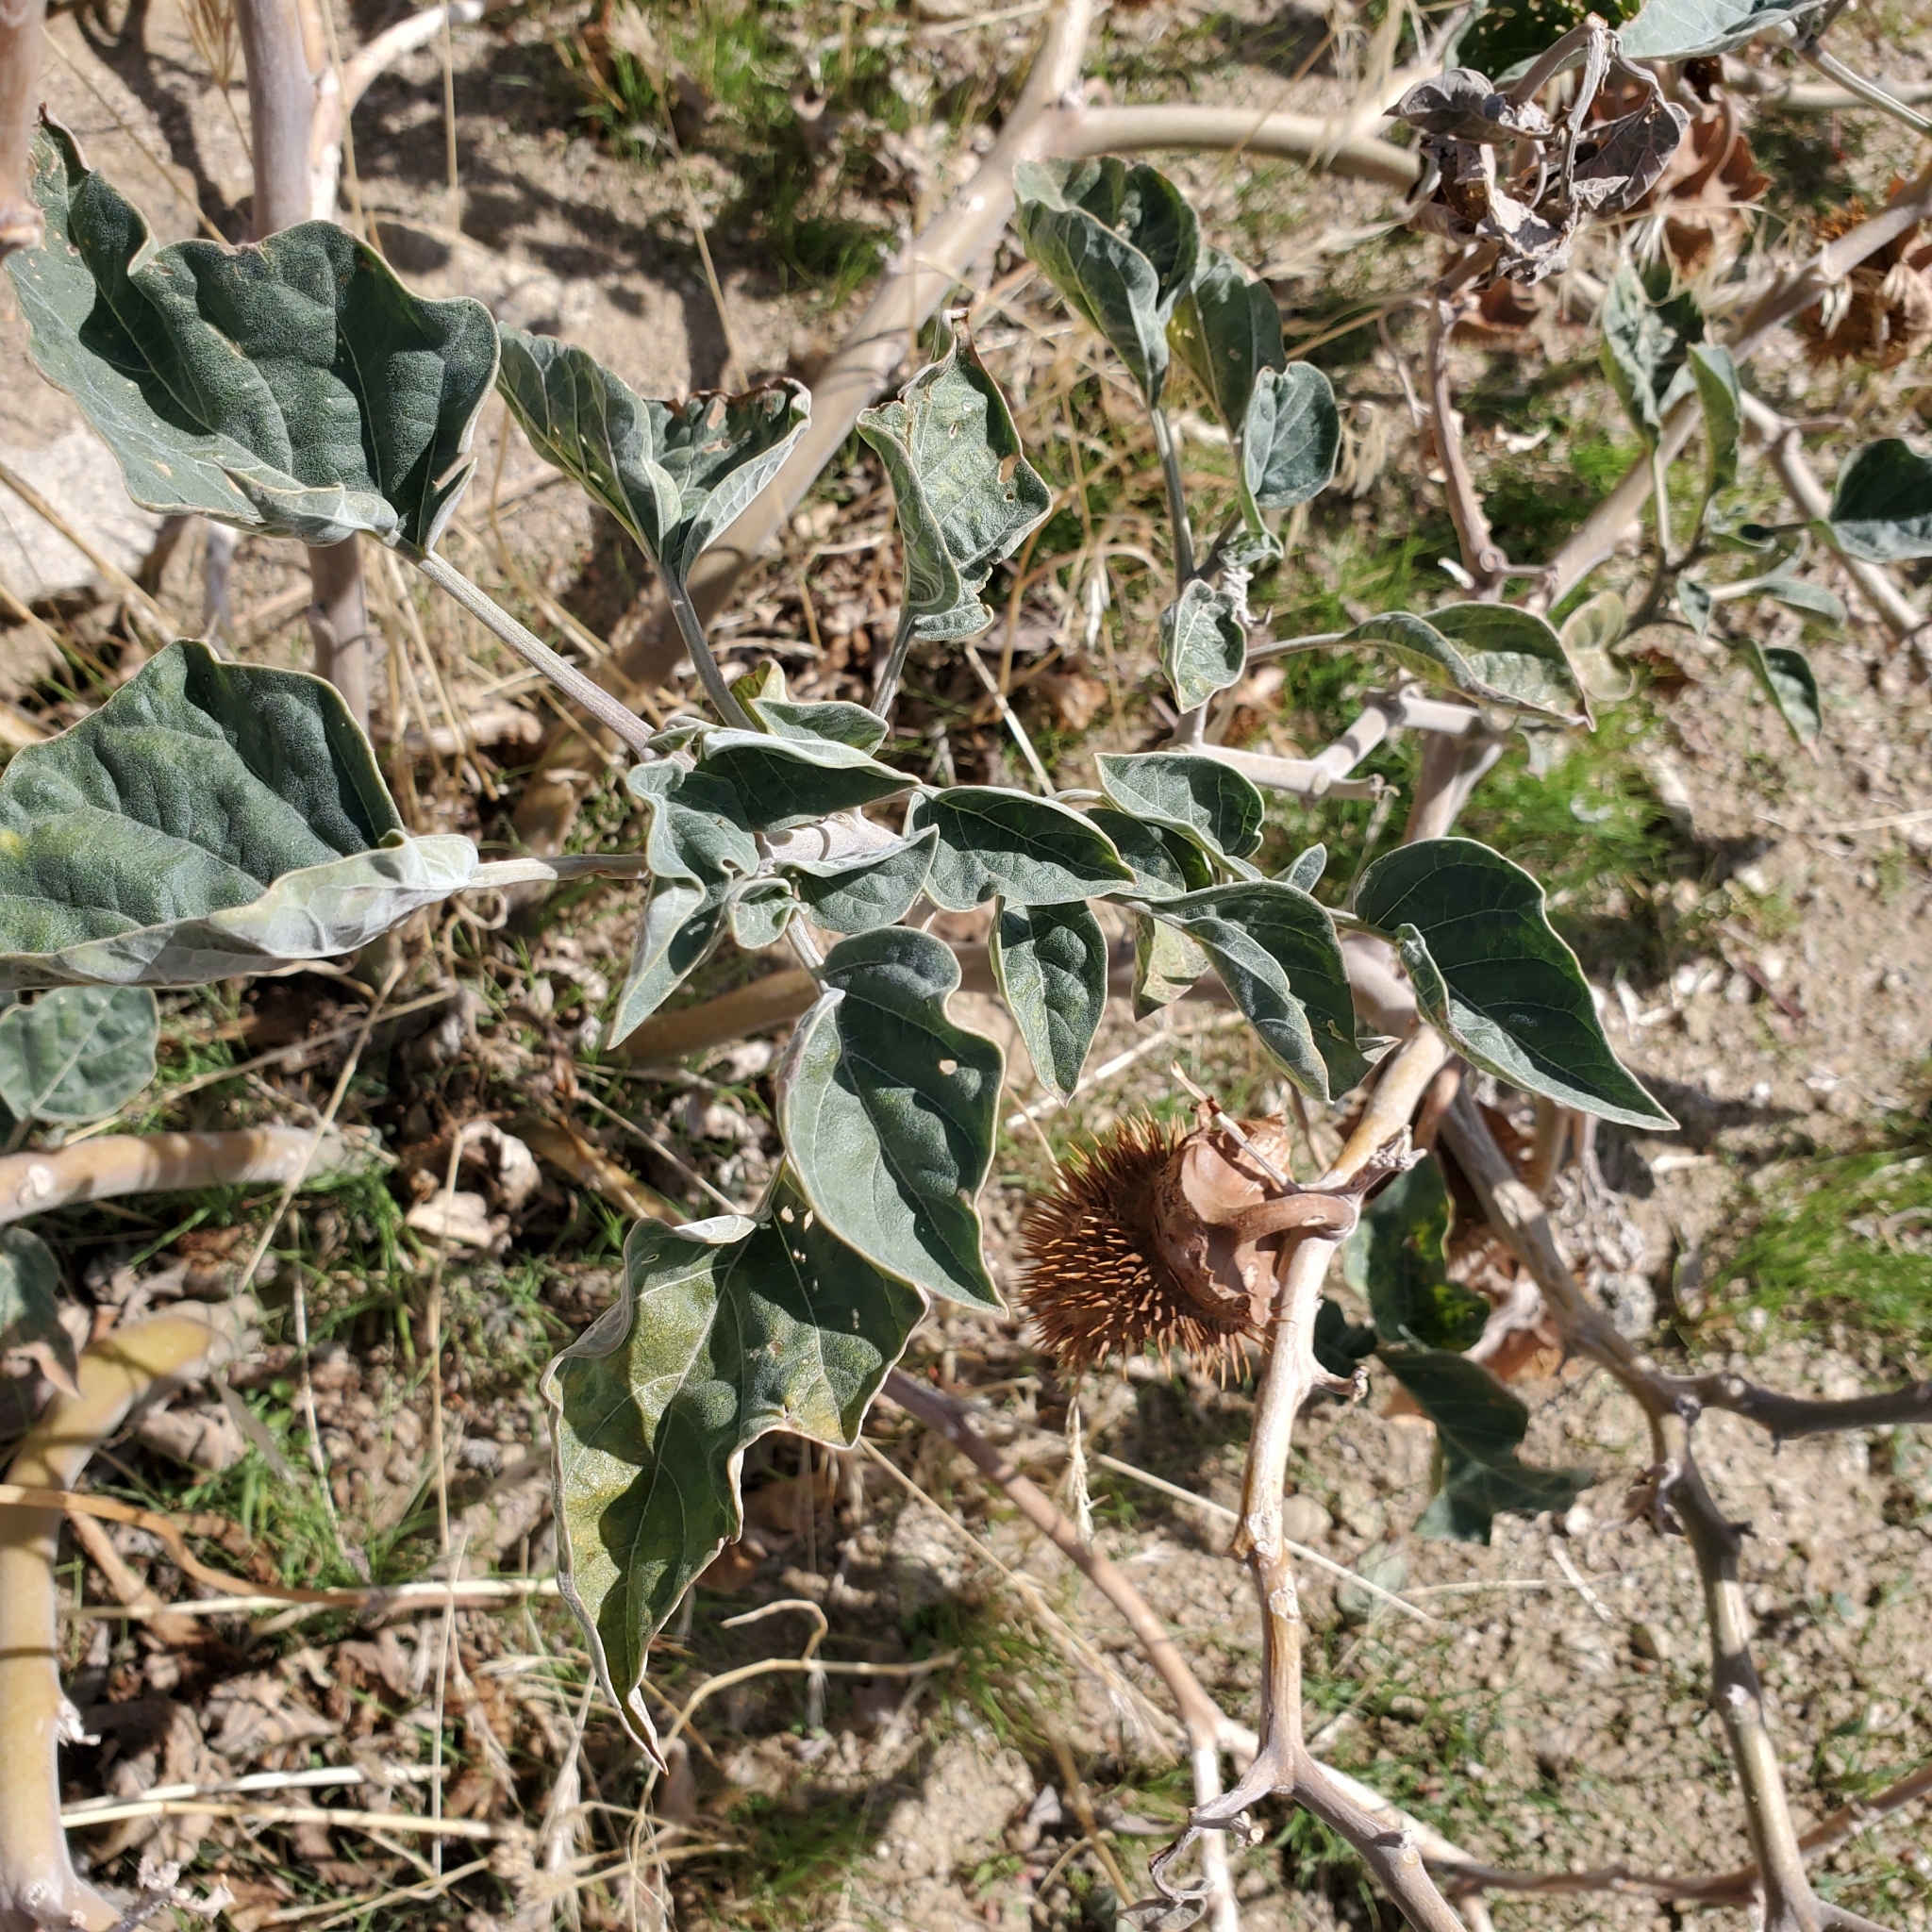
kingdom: Plantae
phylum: Tracheophyta
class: Magnoliopsida
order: Solanales
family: Solanaceae
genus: Datura
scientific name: Datura wrightii
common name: Sacred thorn-apple
